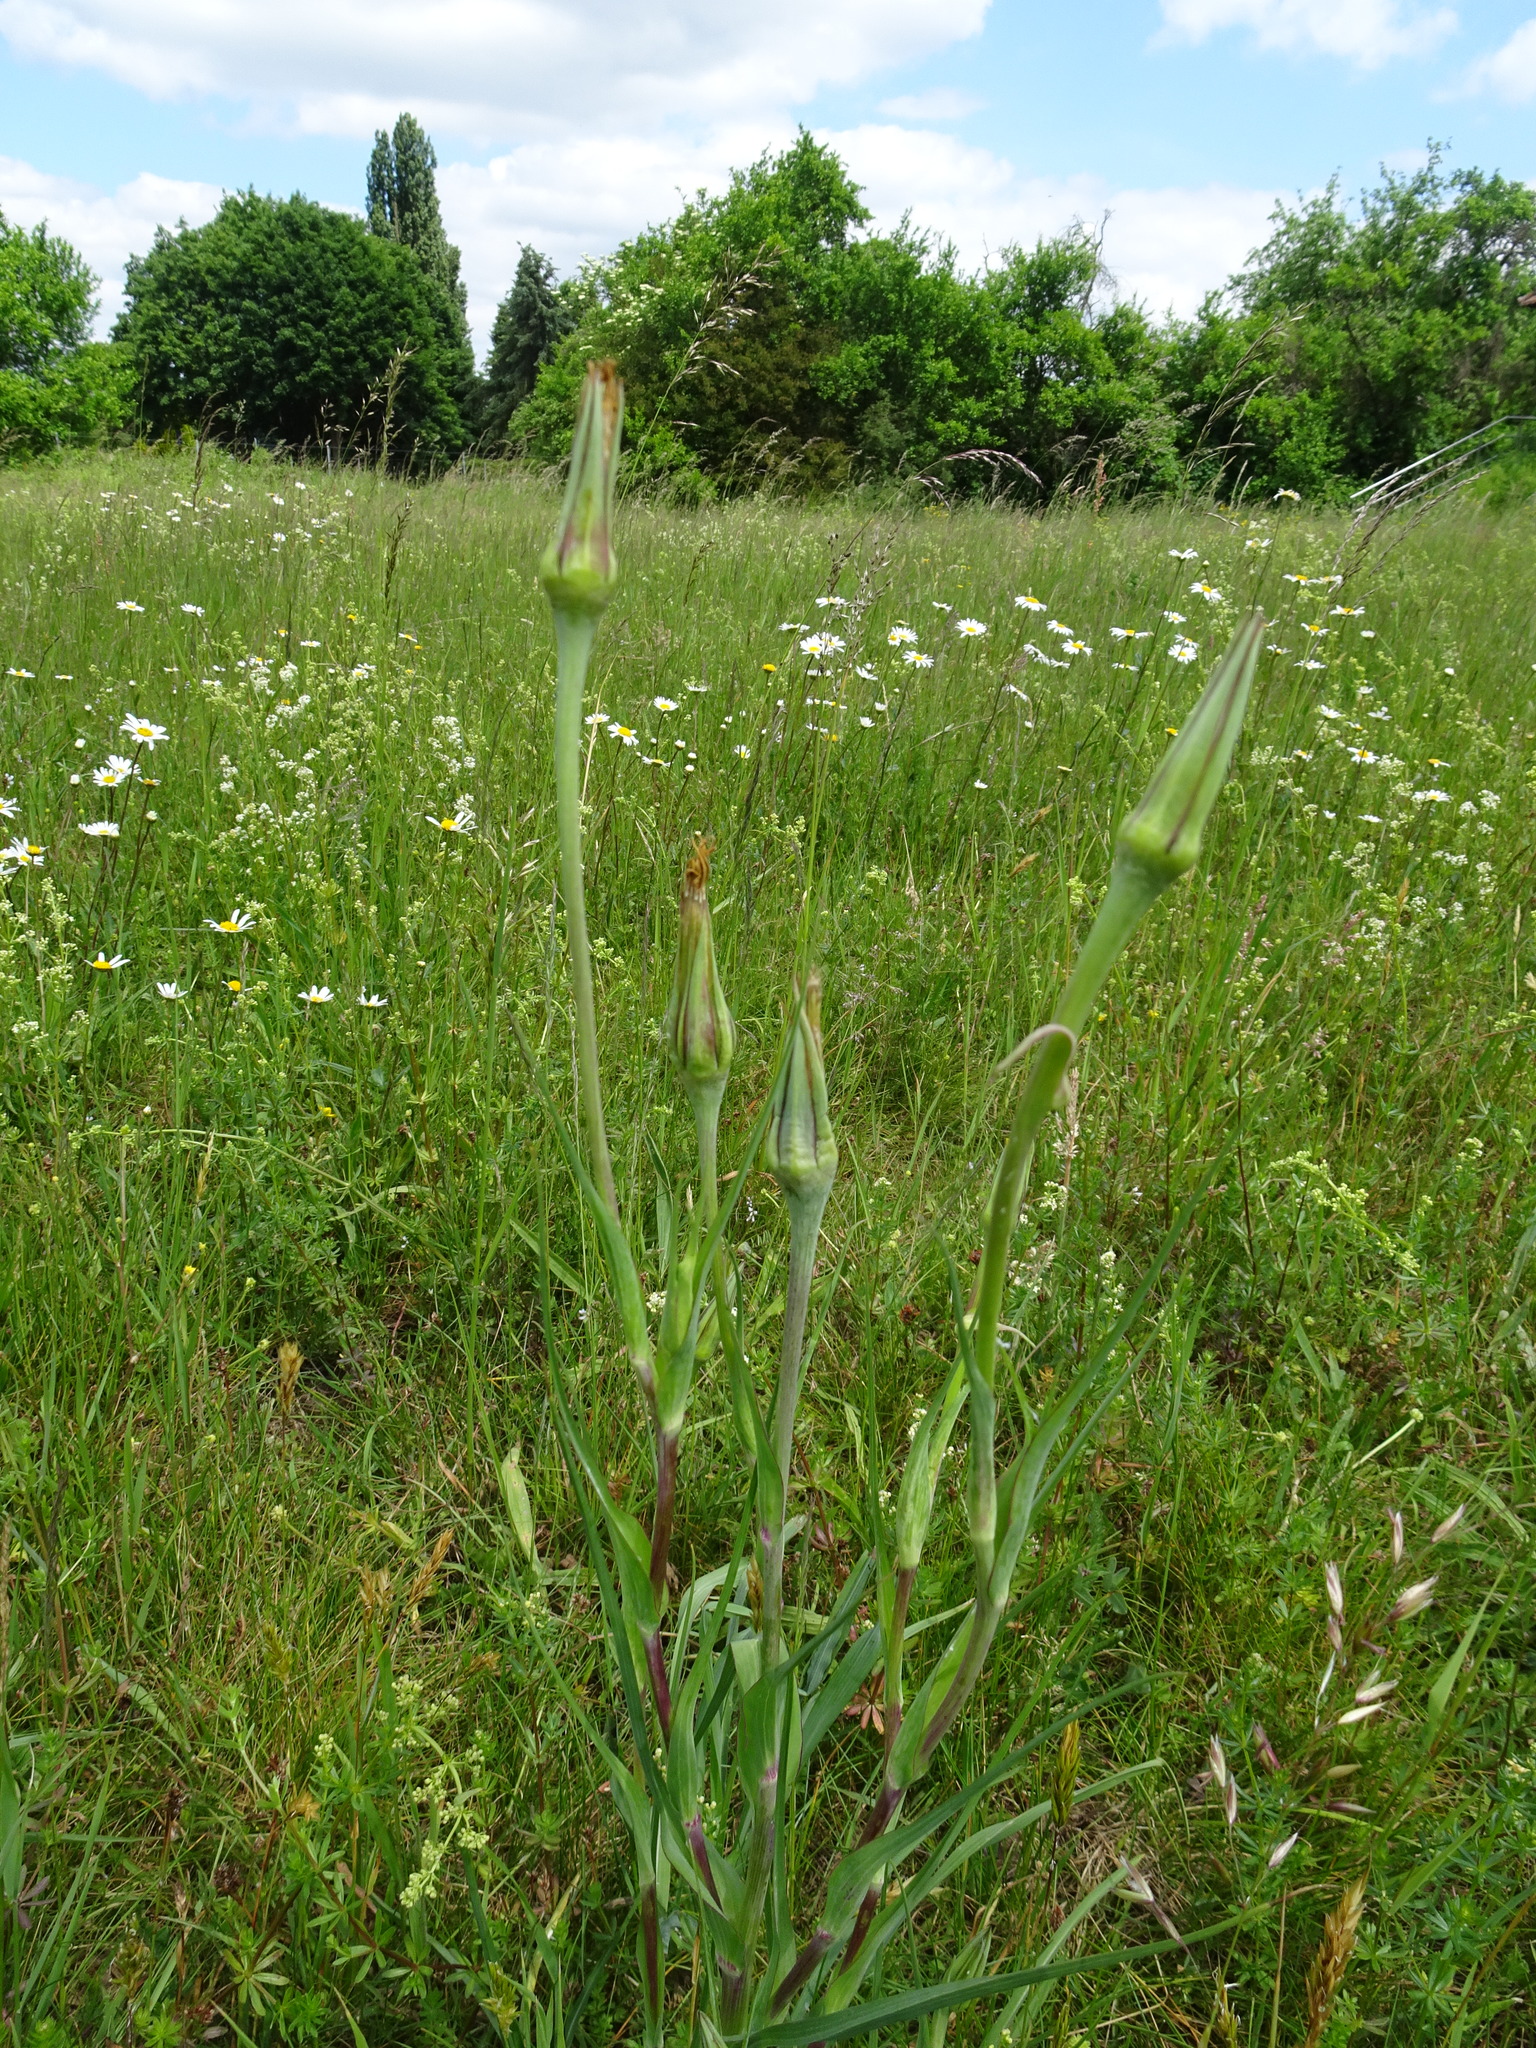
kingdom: Plantae
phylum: Tracheophyta
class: Magnoliopsida
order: Asterales
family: Asteraceae
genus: Tragopogon
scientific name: Tragopogon dubius
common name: Yellow salsify
